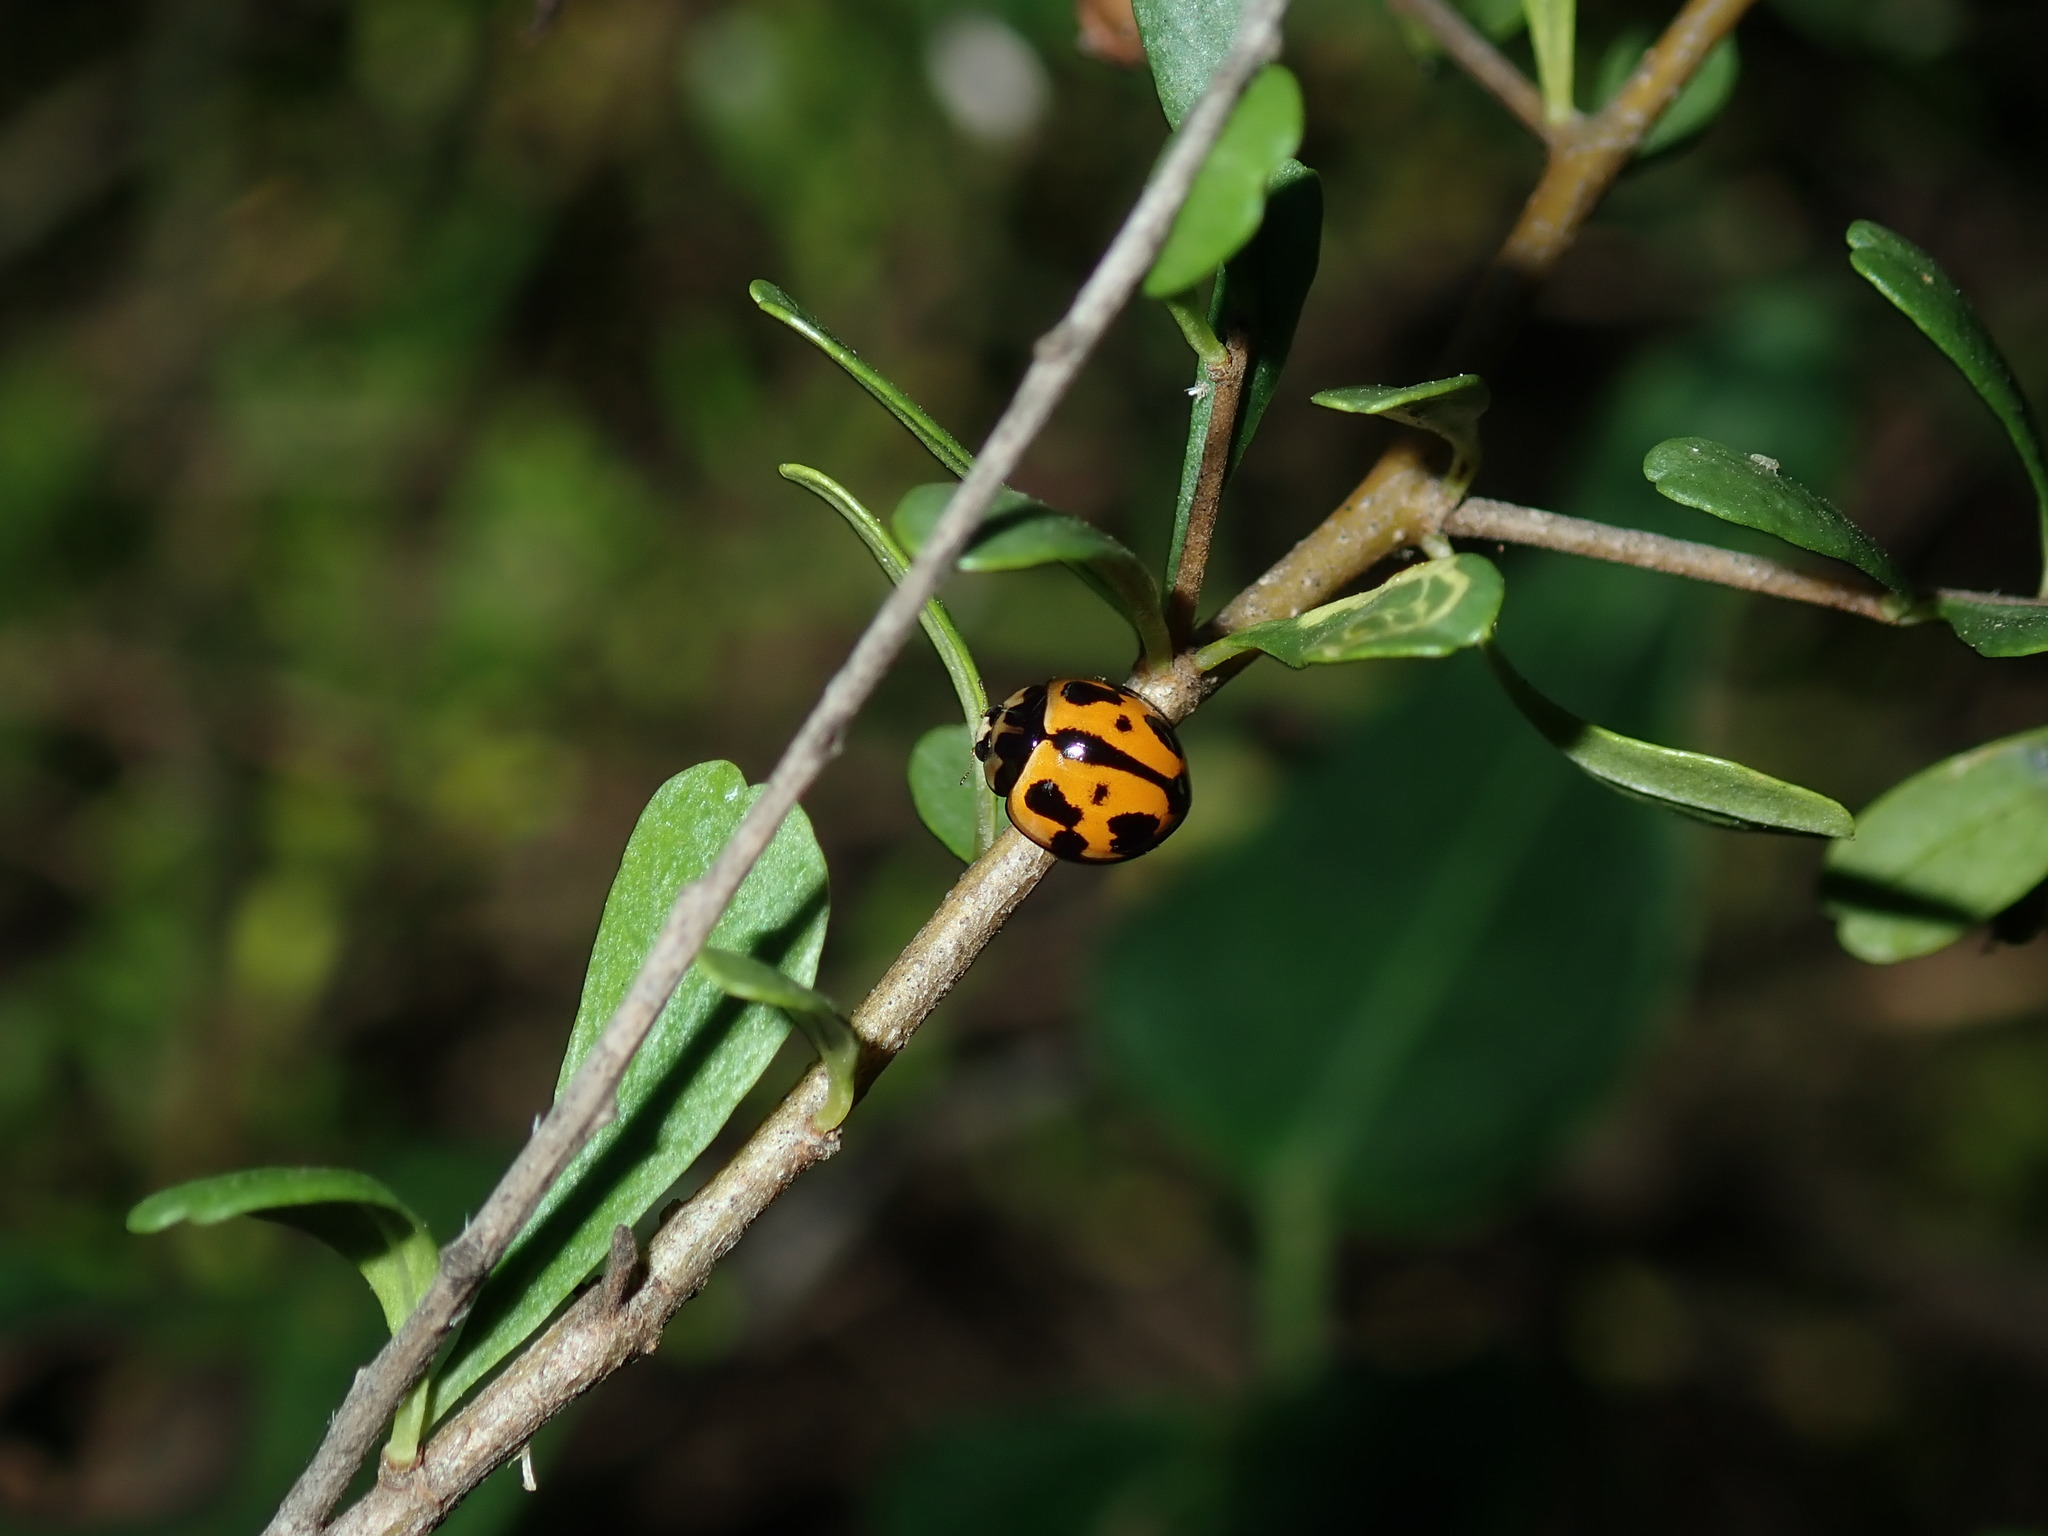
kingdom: Animalia
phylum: Arthropoda
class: Insecta
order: Coleoptera
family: Coccinellidae
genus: Coelophora
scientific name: Coelophora inaequalis
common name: Common australian lady beetle
